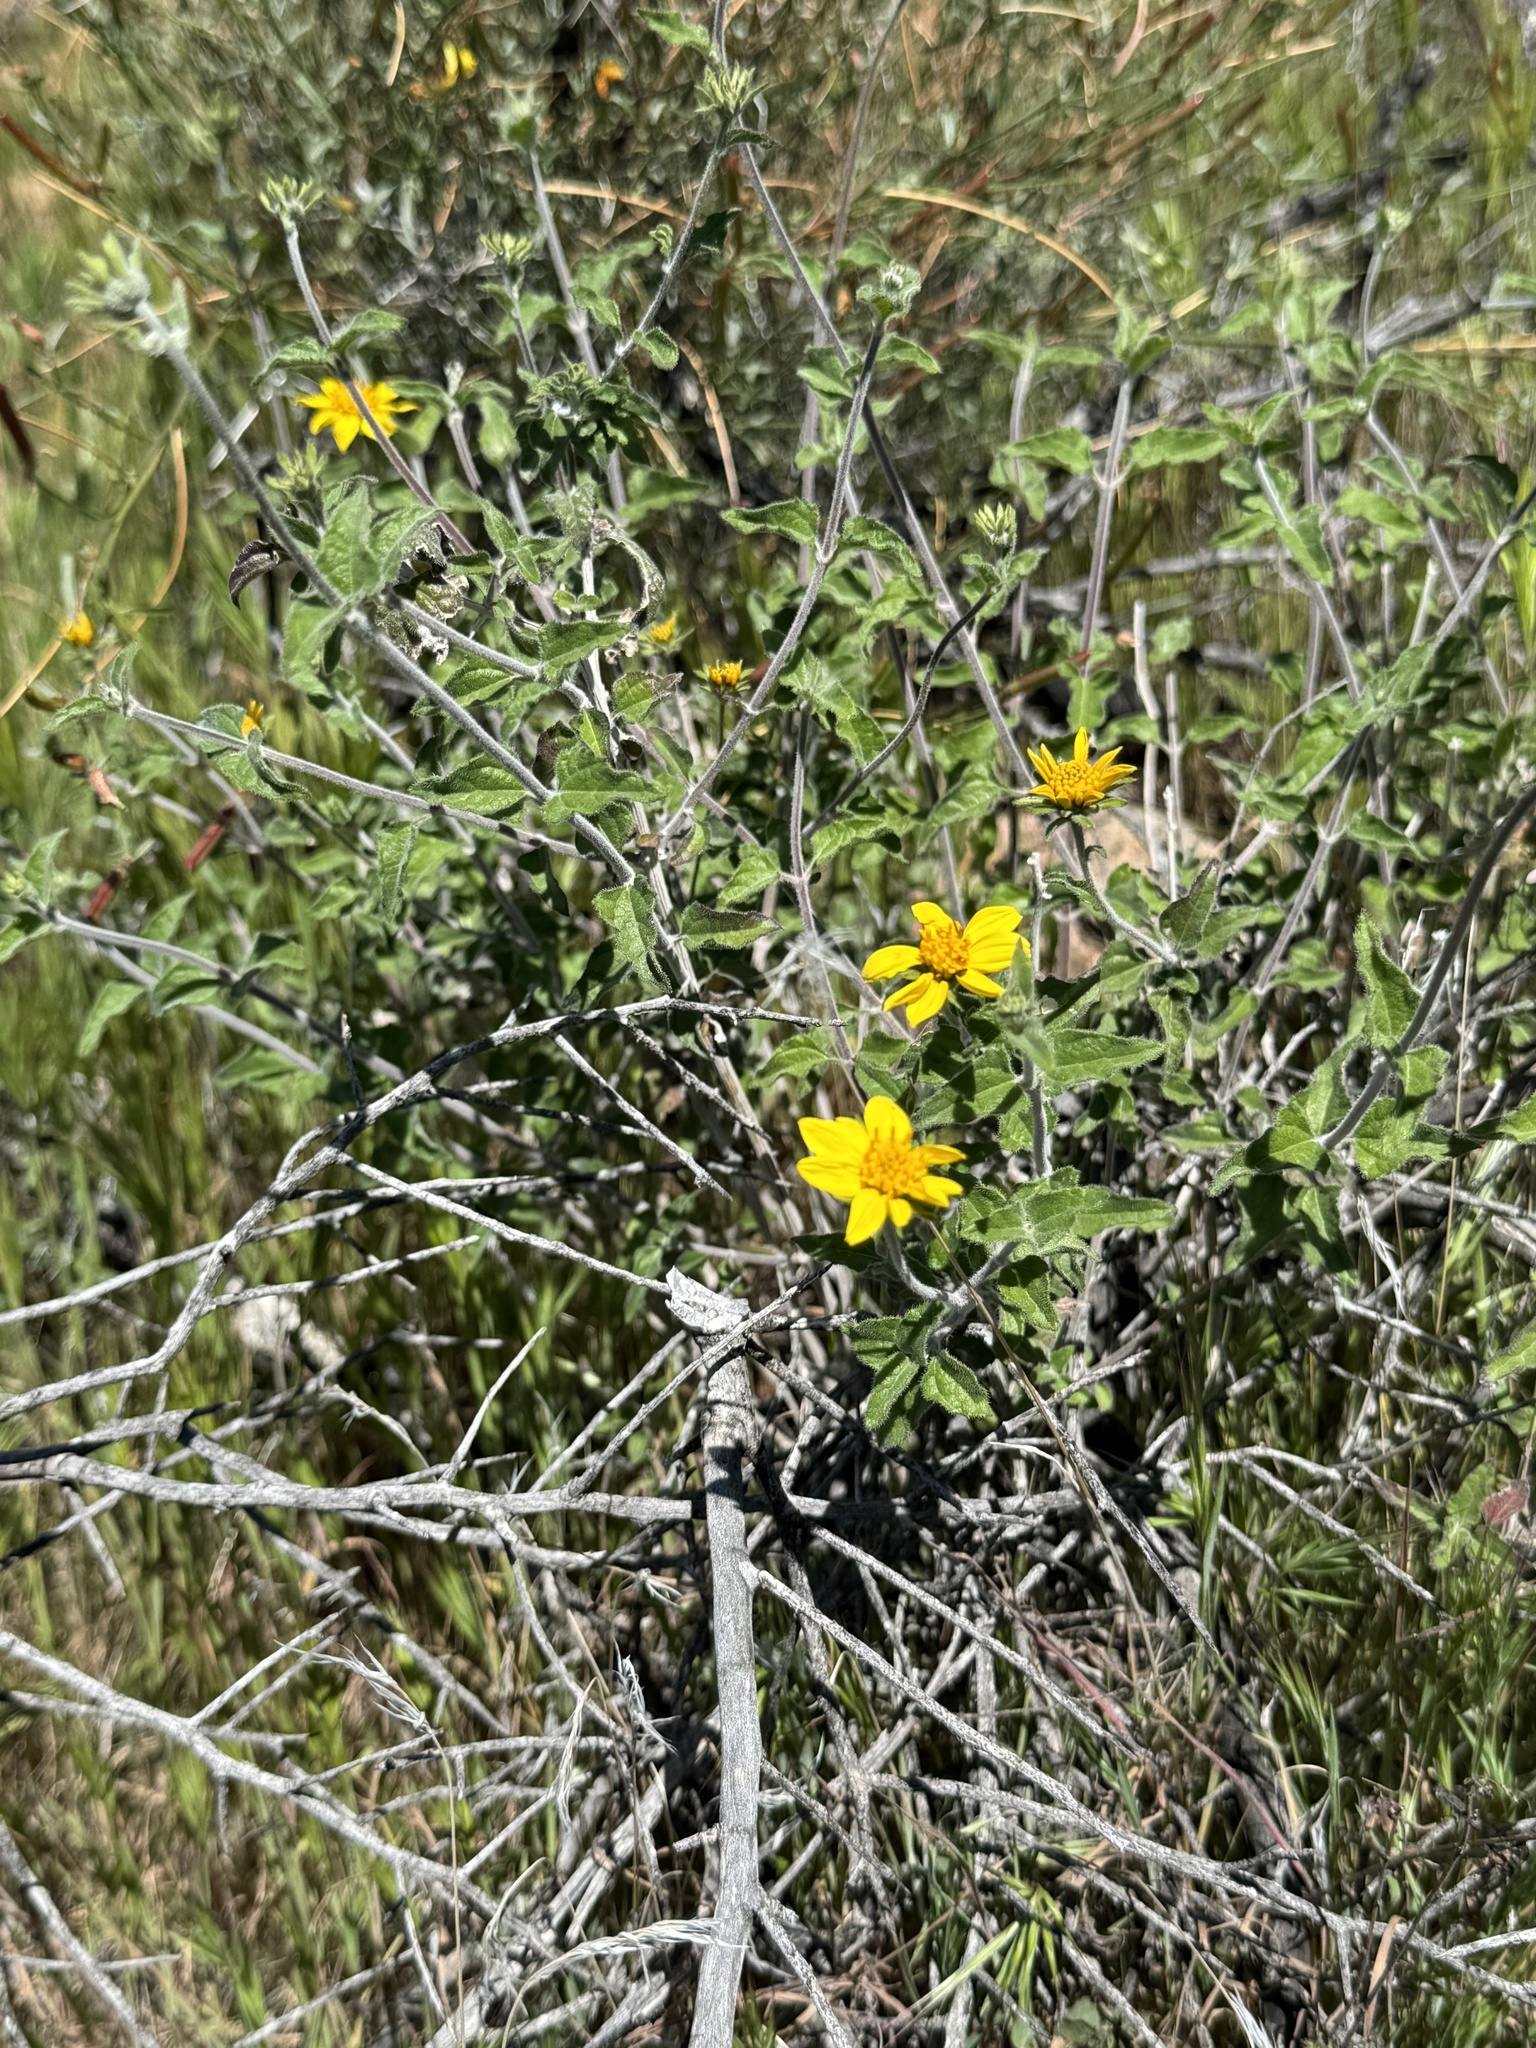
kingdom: Plantae
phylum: Tracheophyta
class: Magnoliopsida
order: Asterales
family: Asteraceae
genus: Bahiopsis
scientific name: Bahiopsis parishii
